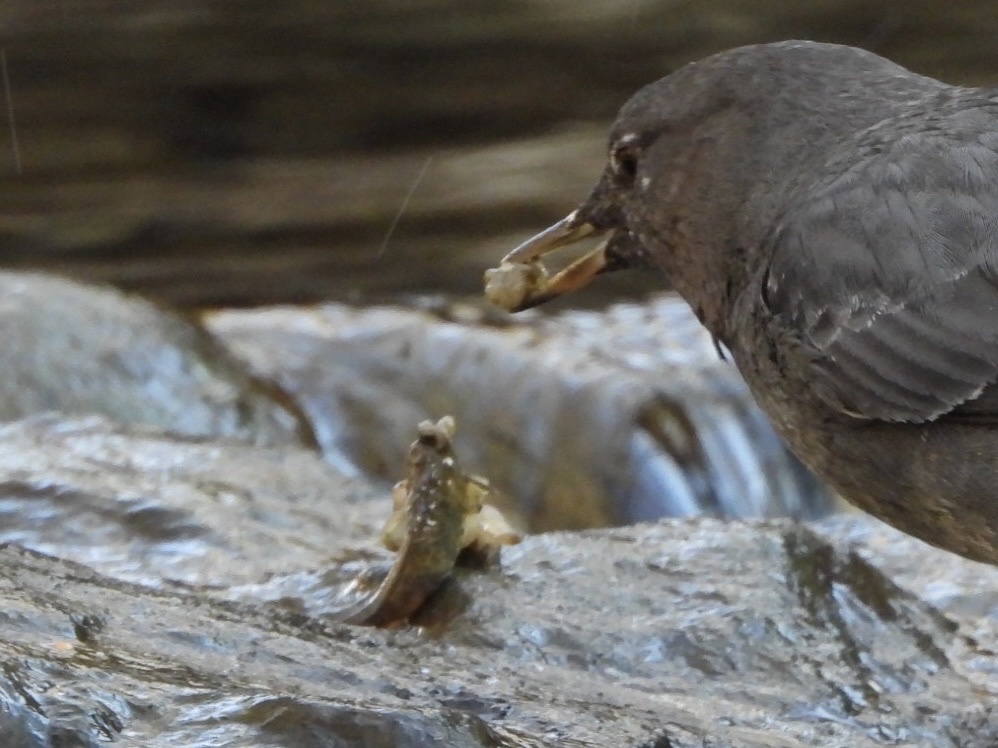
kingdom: Animalia
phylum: Chordata
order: Gasterosteiformes
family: Gasterosteidae
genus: Gasterosteus
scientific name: Gasterosteus aculeatus
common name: Three-spined stickleback
